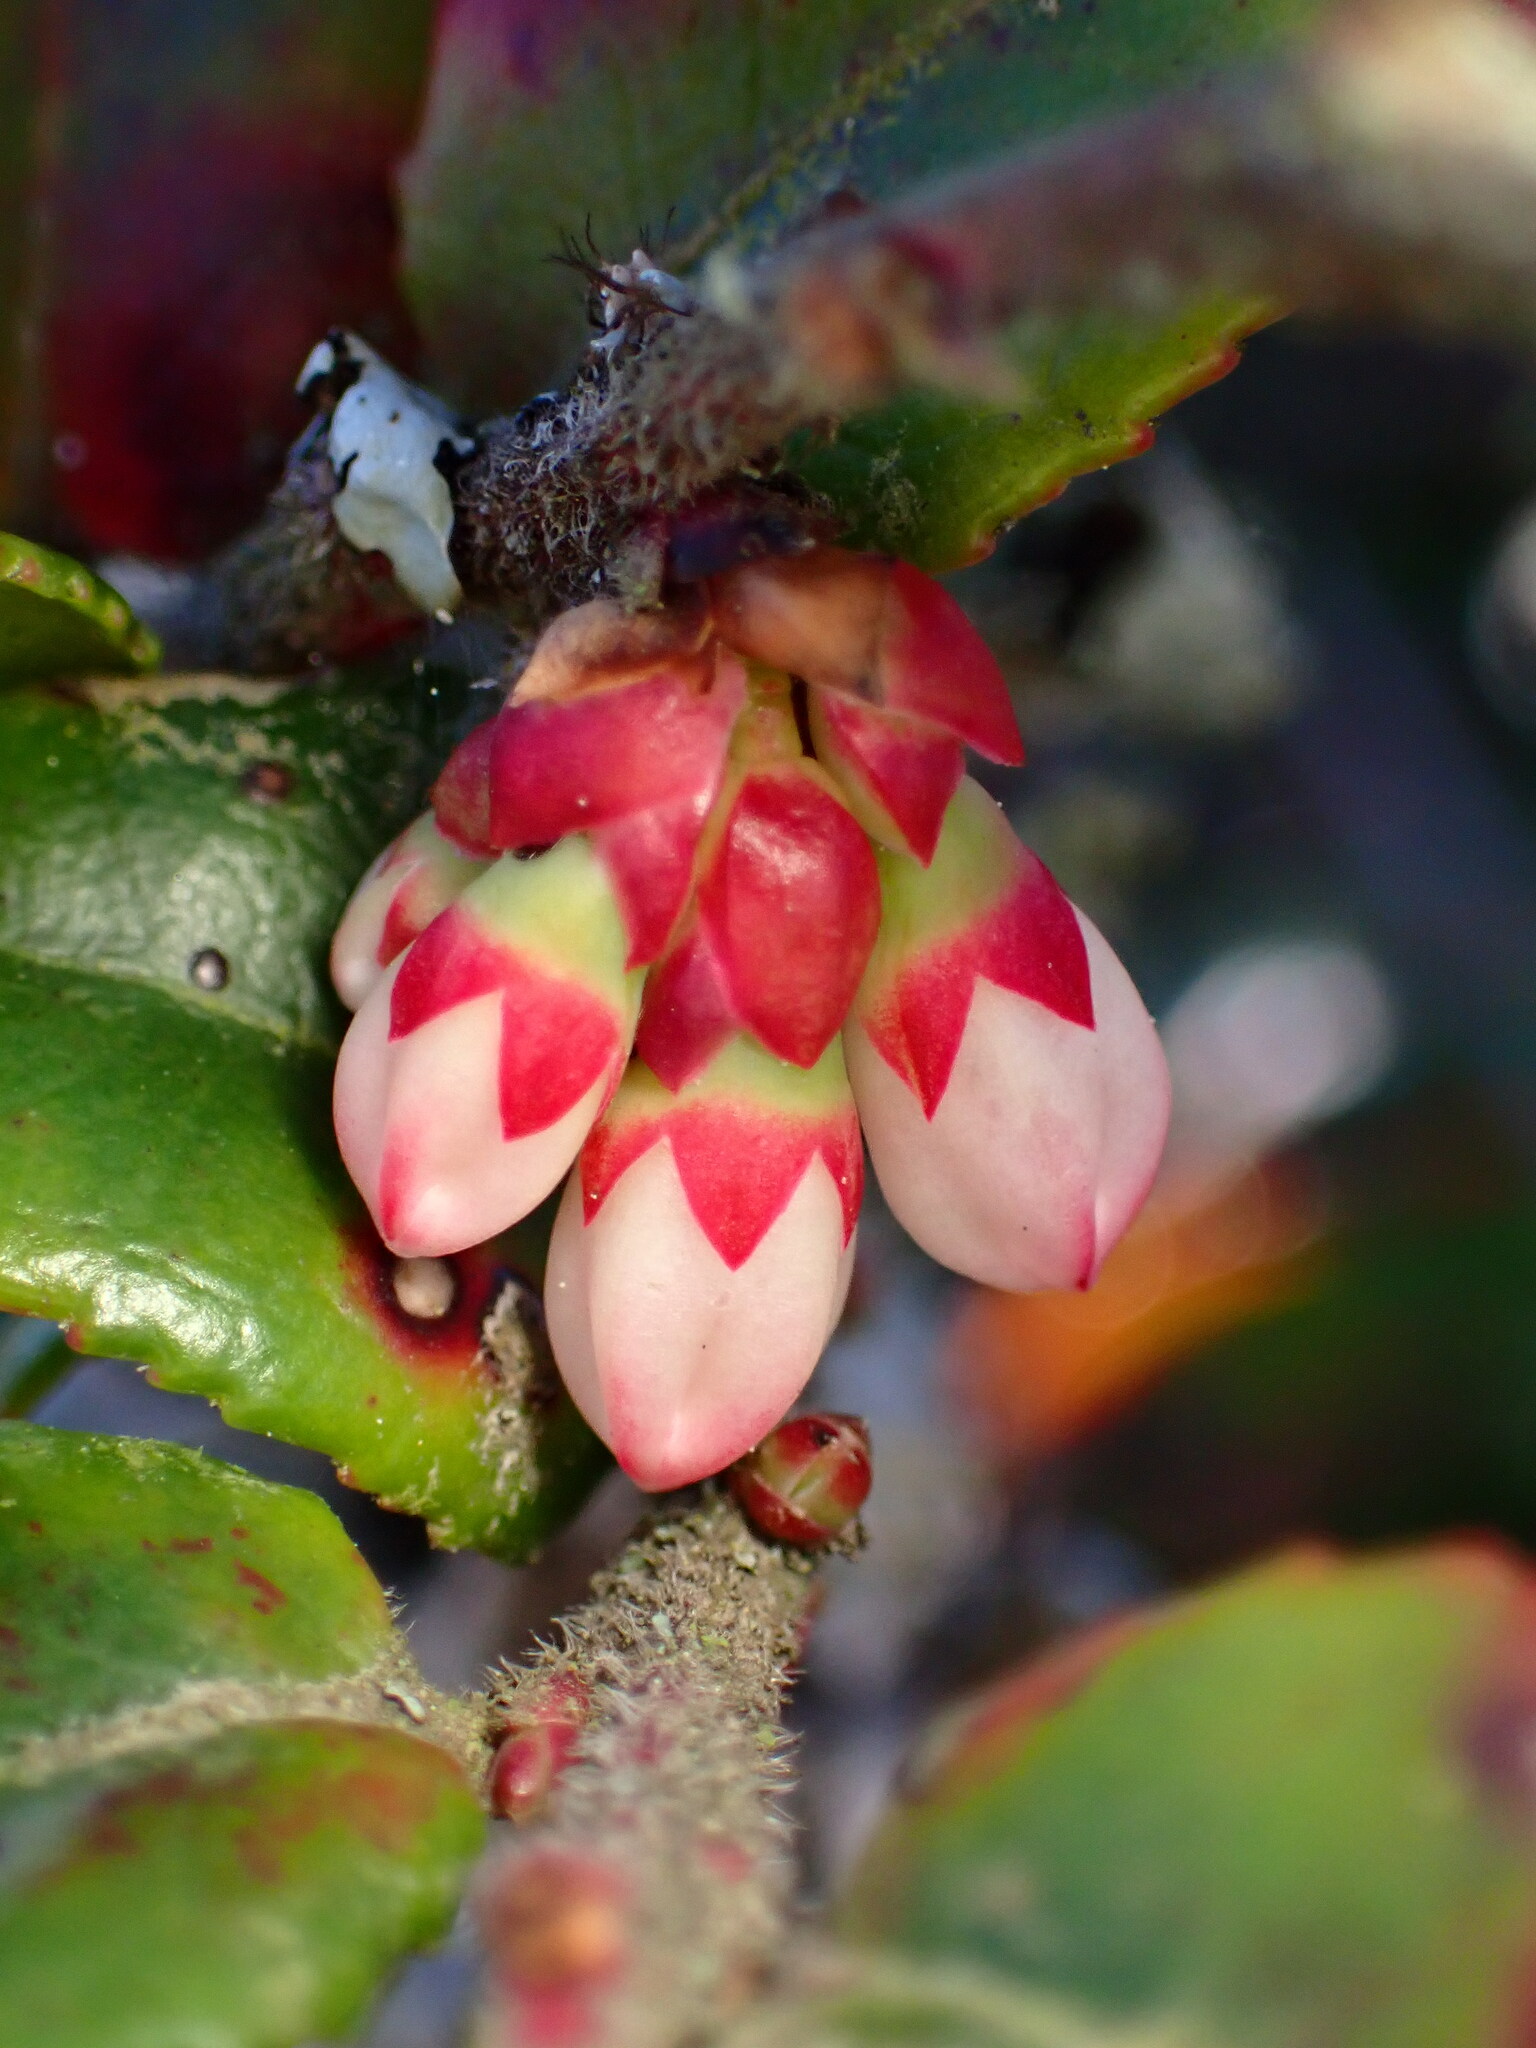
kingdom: Plantae
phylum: Tracheophyta
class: Magnoliopsida
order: Ericales
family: Ericaceae
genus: Vaccinium
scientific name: Vaccinium ovatum
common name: California-huckleberry
